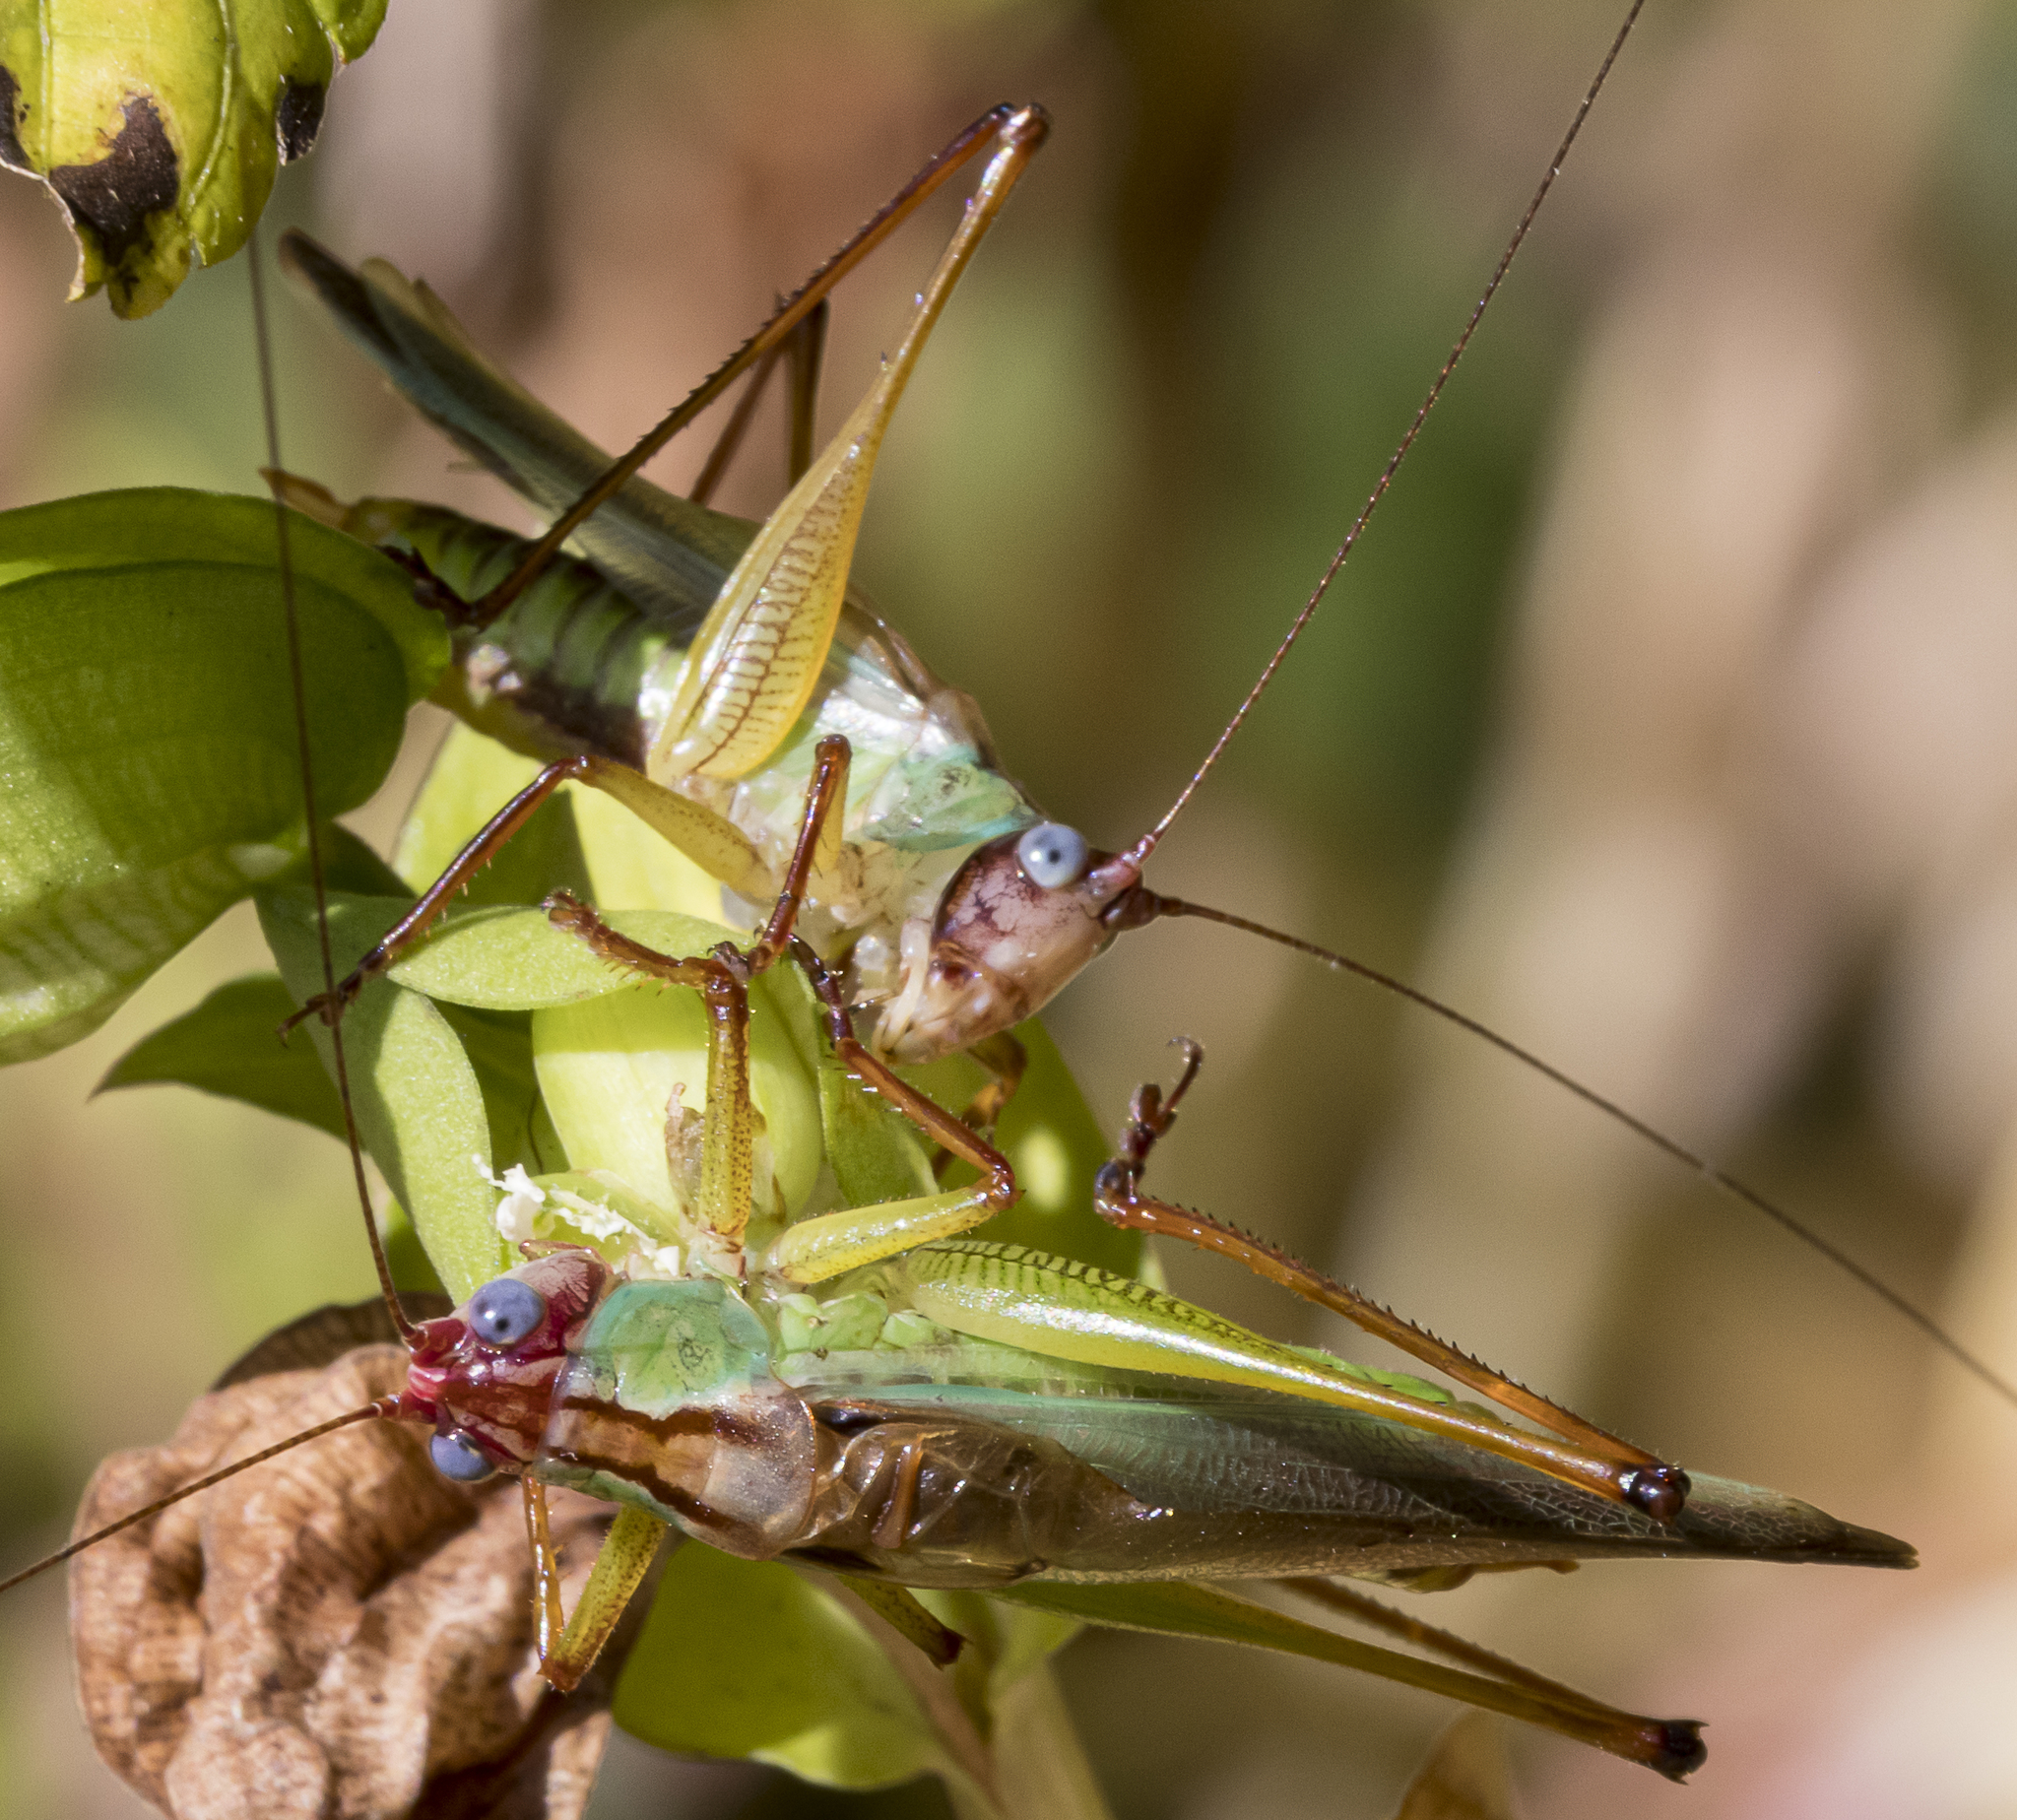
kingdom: Animalia
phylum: Arthropoda
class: Insecta
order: Orthoptera
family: Tettigoniidae
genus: Orchelimum
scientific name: Orchelimum pulchellum
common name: Handsome meadow katydid
